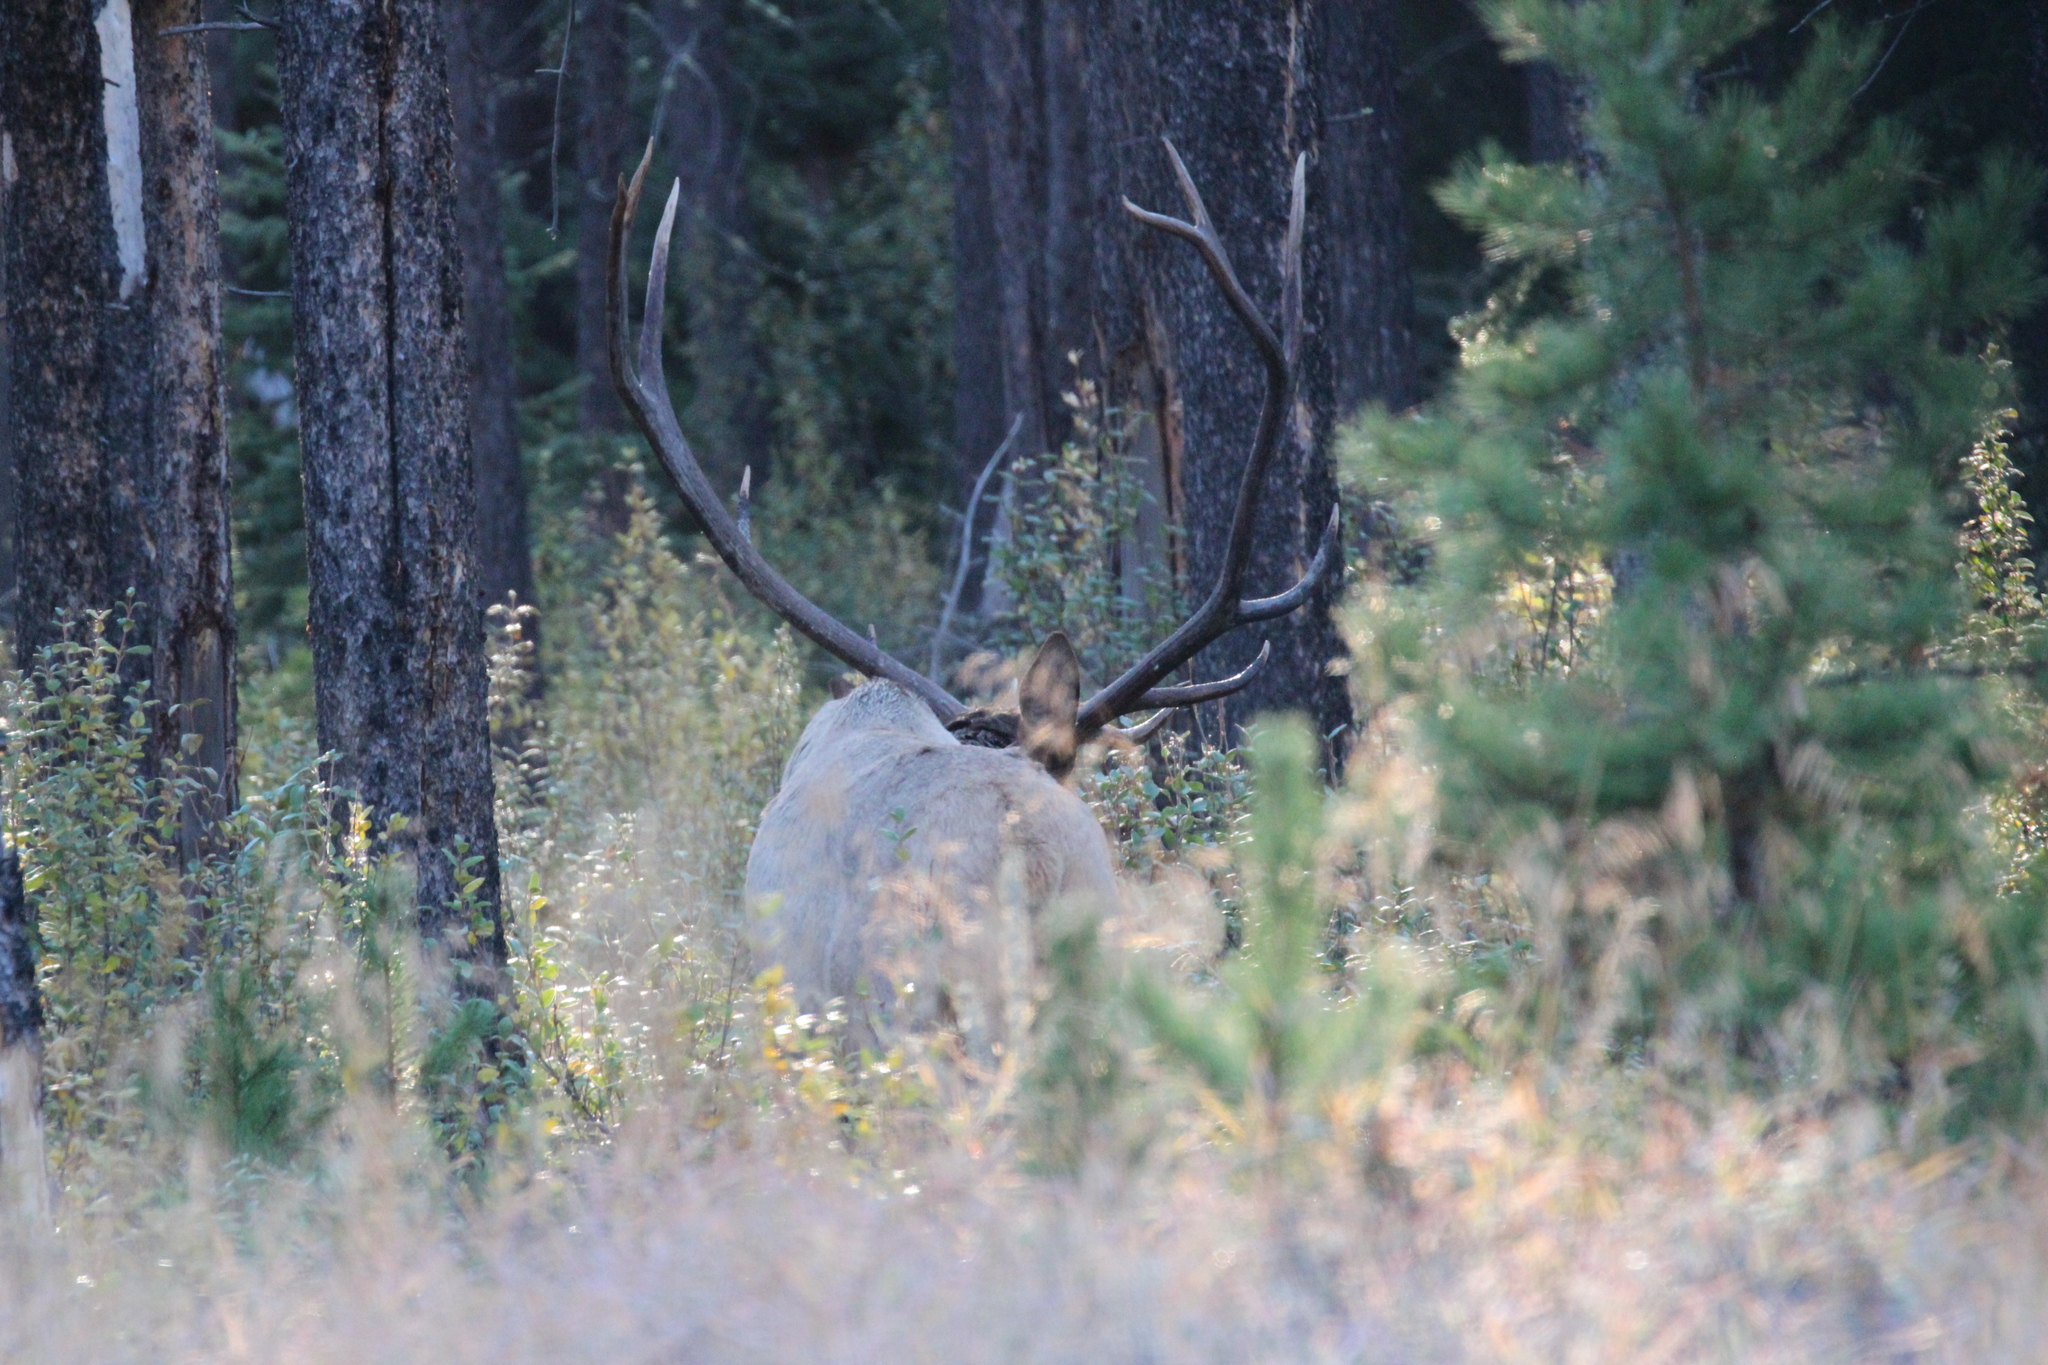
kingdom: Animalia
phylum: Chordata
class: Mammalia
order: Artiodactyla
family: Cervidae
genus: Cervus
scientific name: Cervus elaphus
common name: Red deer
